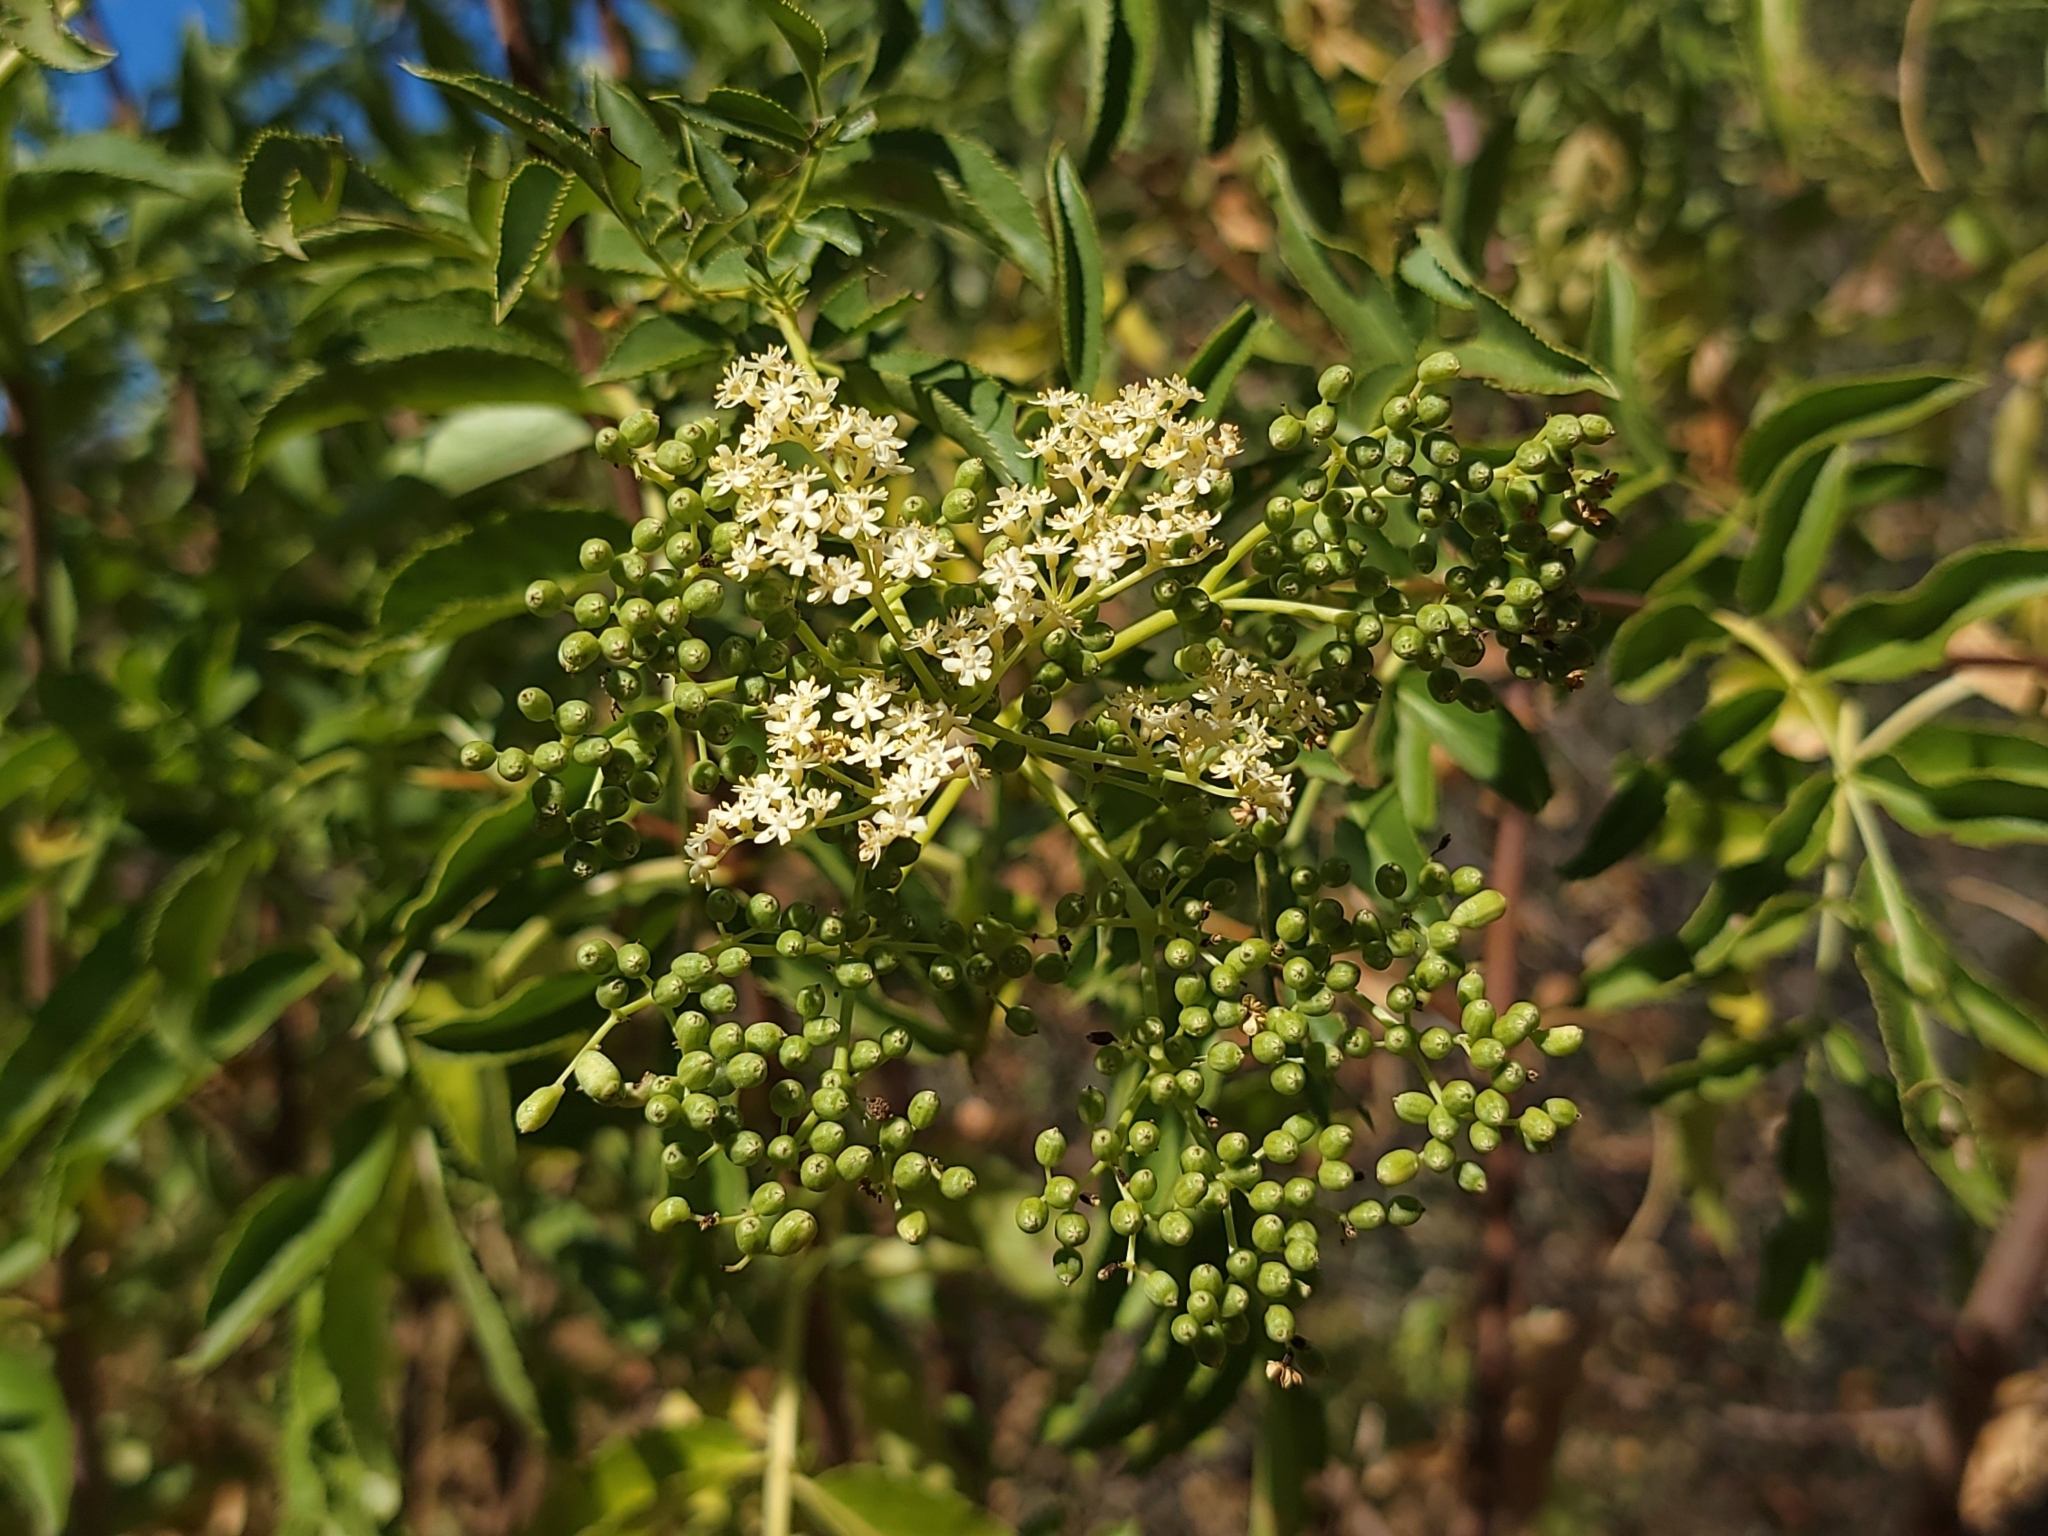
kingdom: Plantae
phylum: Tracheophyta
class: Magnoliopsida
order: Dipsacales
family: Viburnaceae
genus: Sambucus
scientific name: Sambucus cerulea
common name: Blue elder
